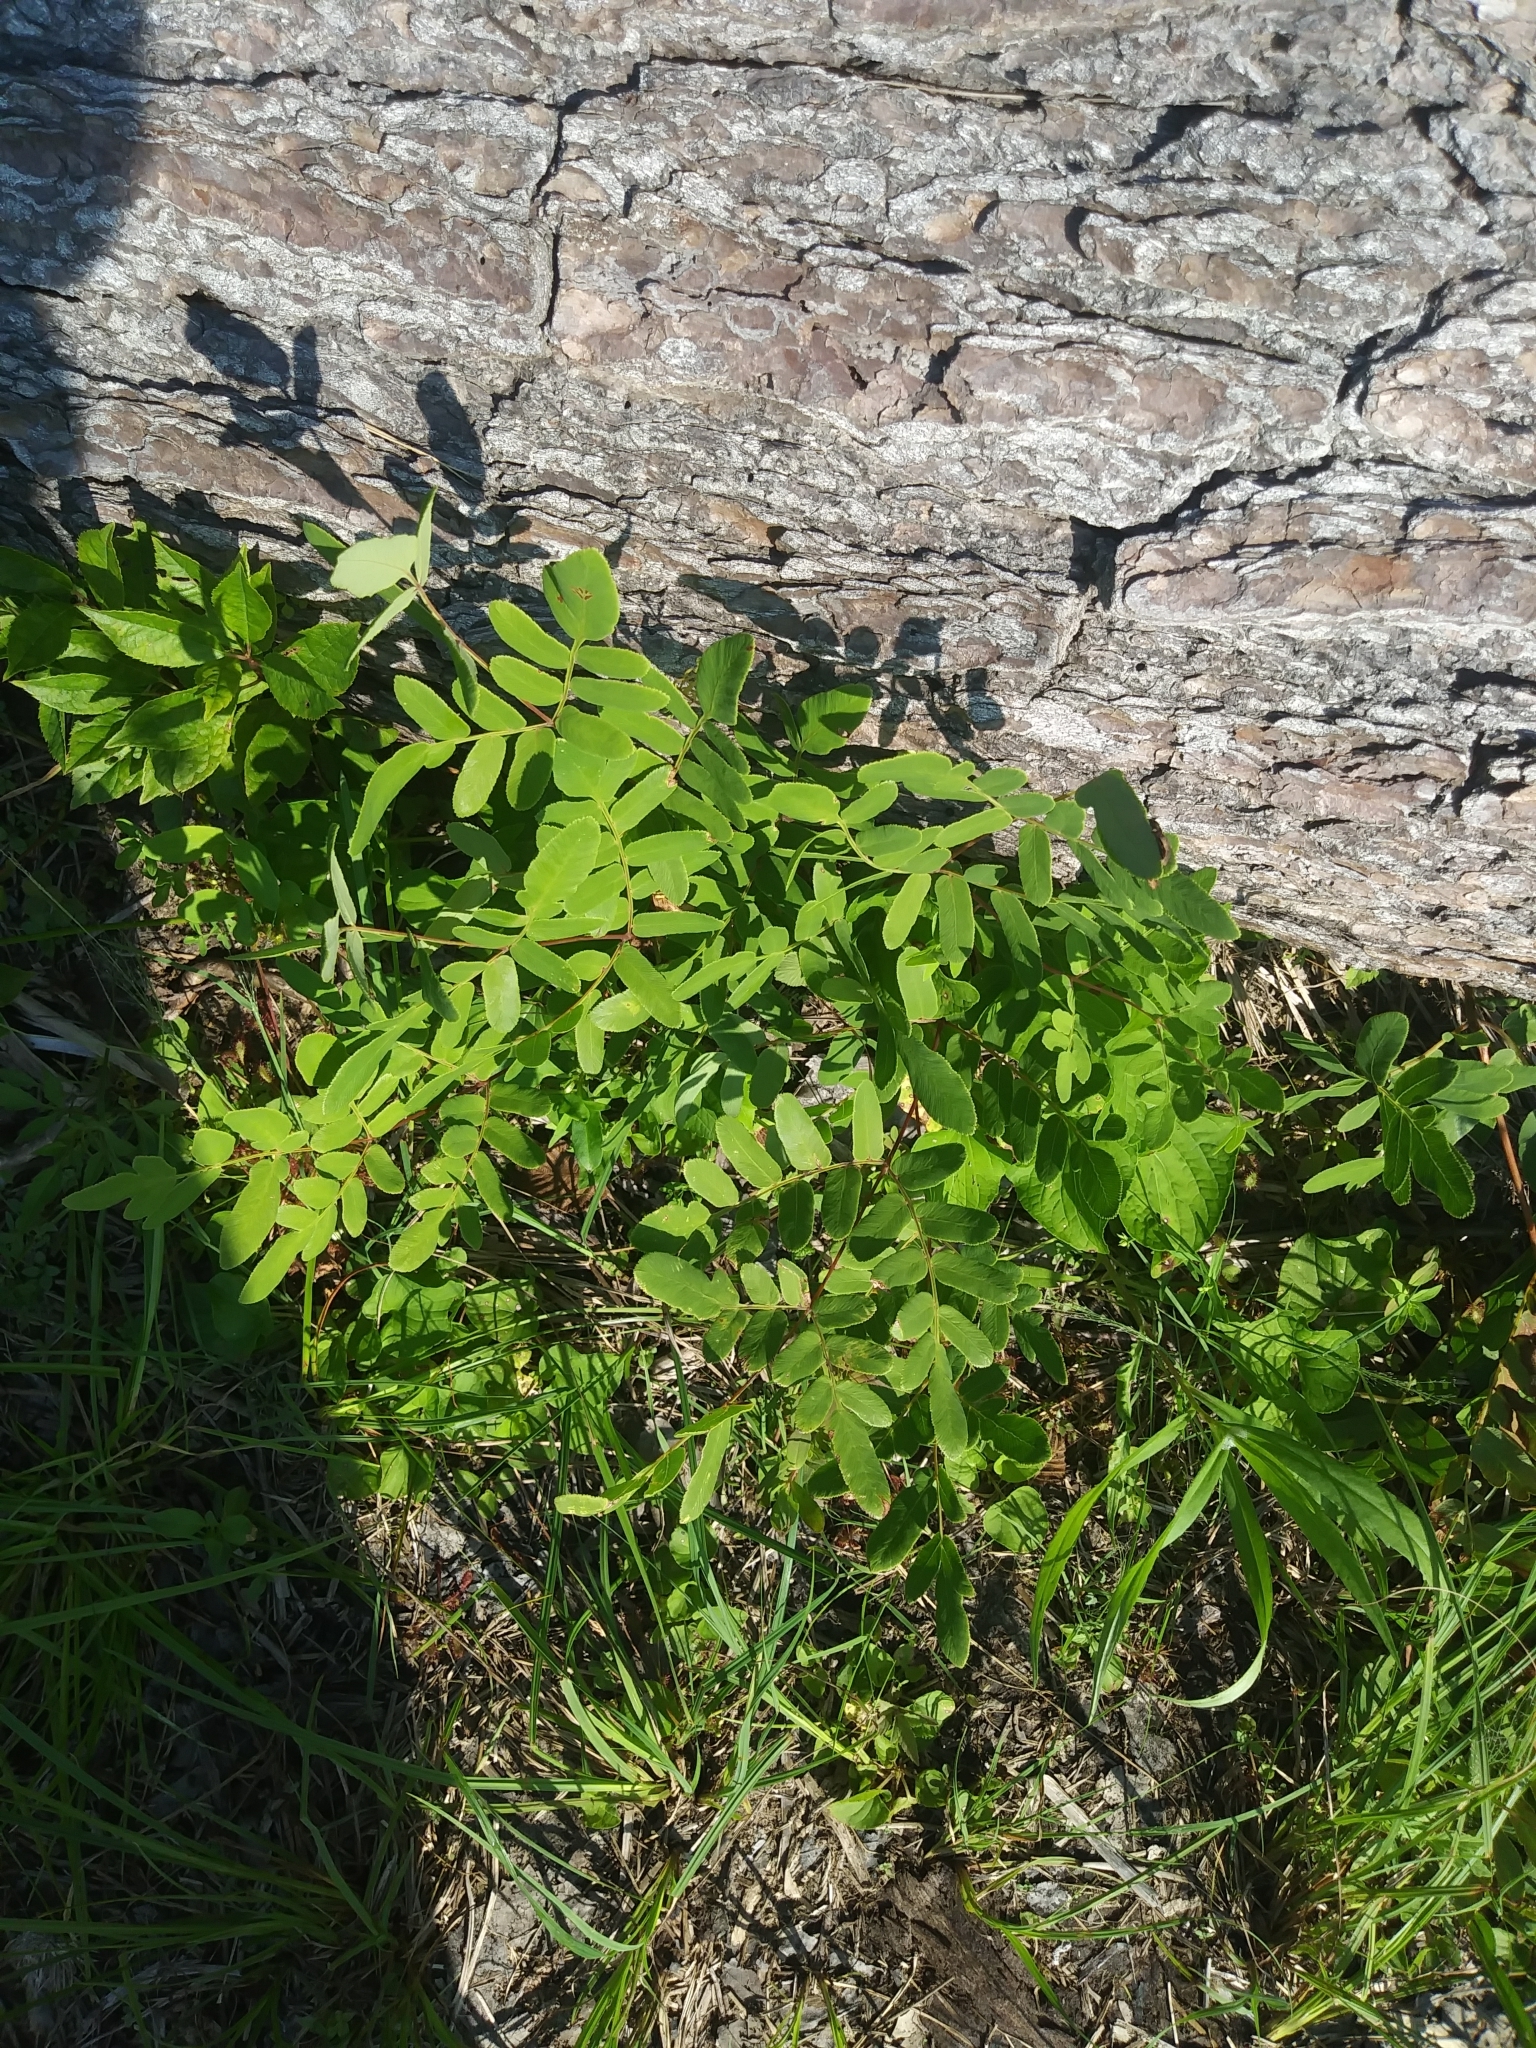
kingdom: Plantae
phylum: Tracheophyta
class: Polypodiopsida
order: Osmundales
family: Osmundaceae
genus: Osmunda
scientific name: Osmunda spectabilis
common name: American royal fern
